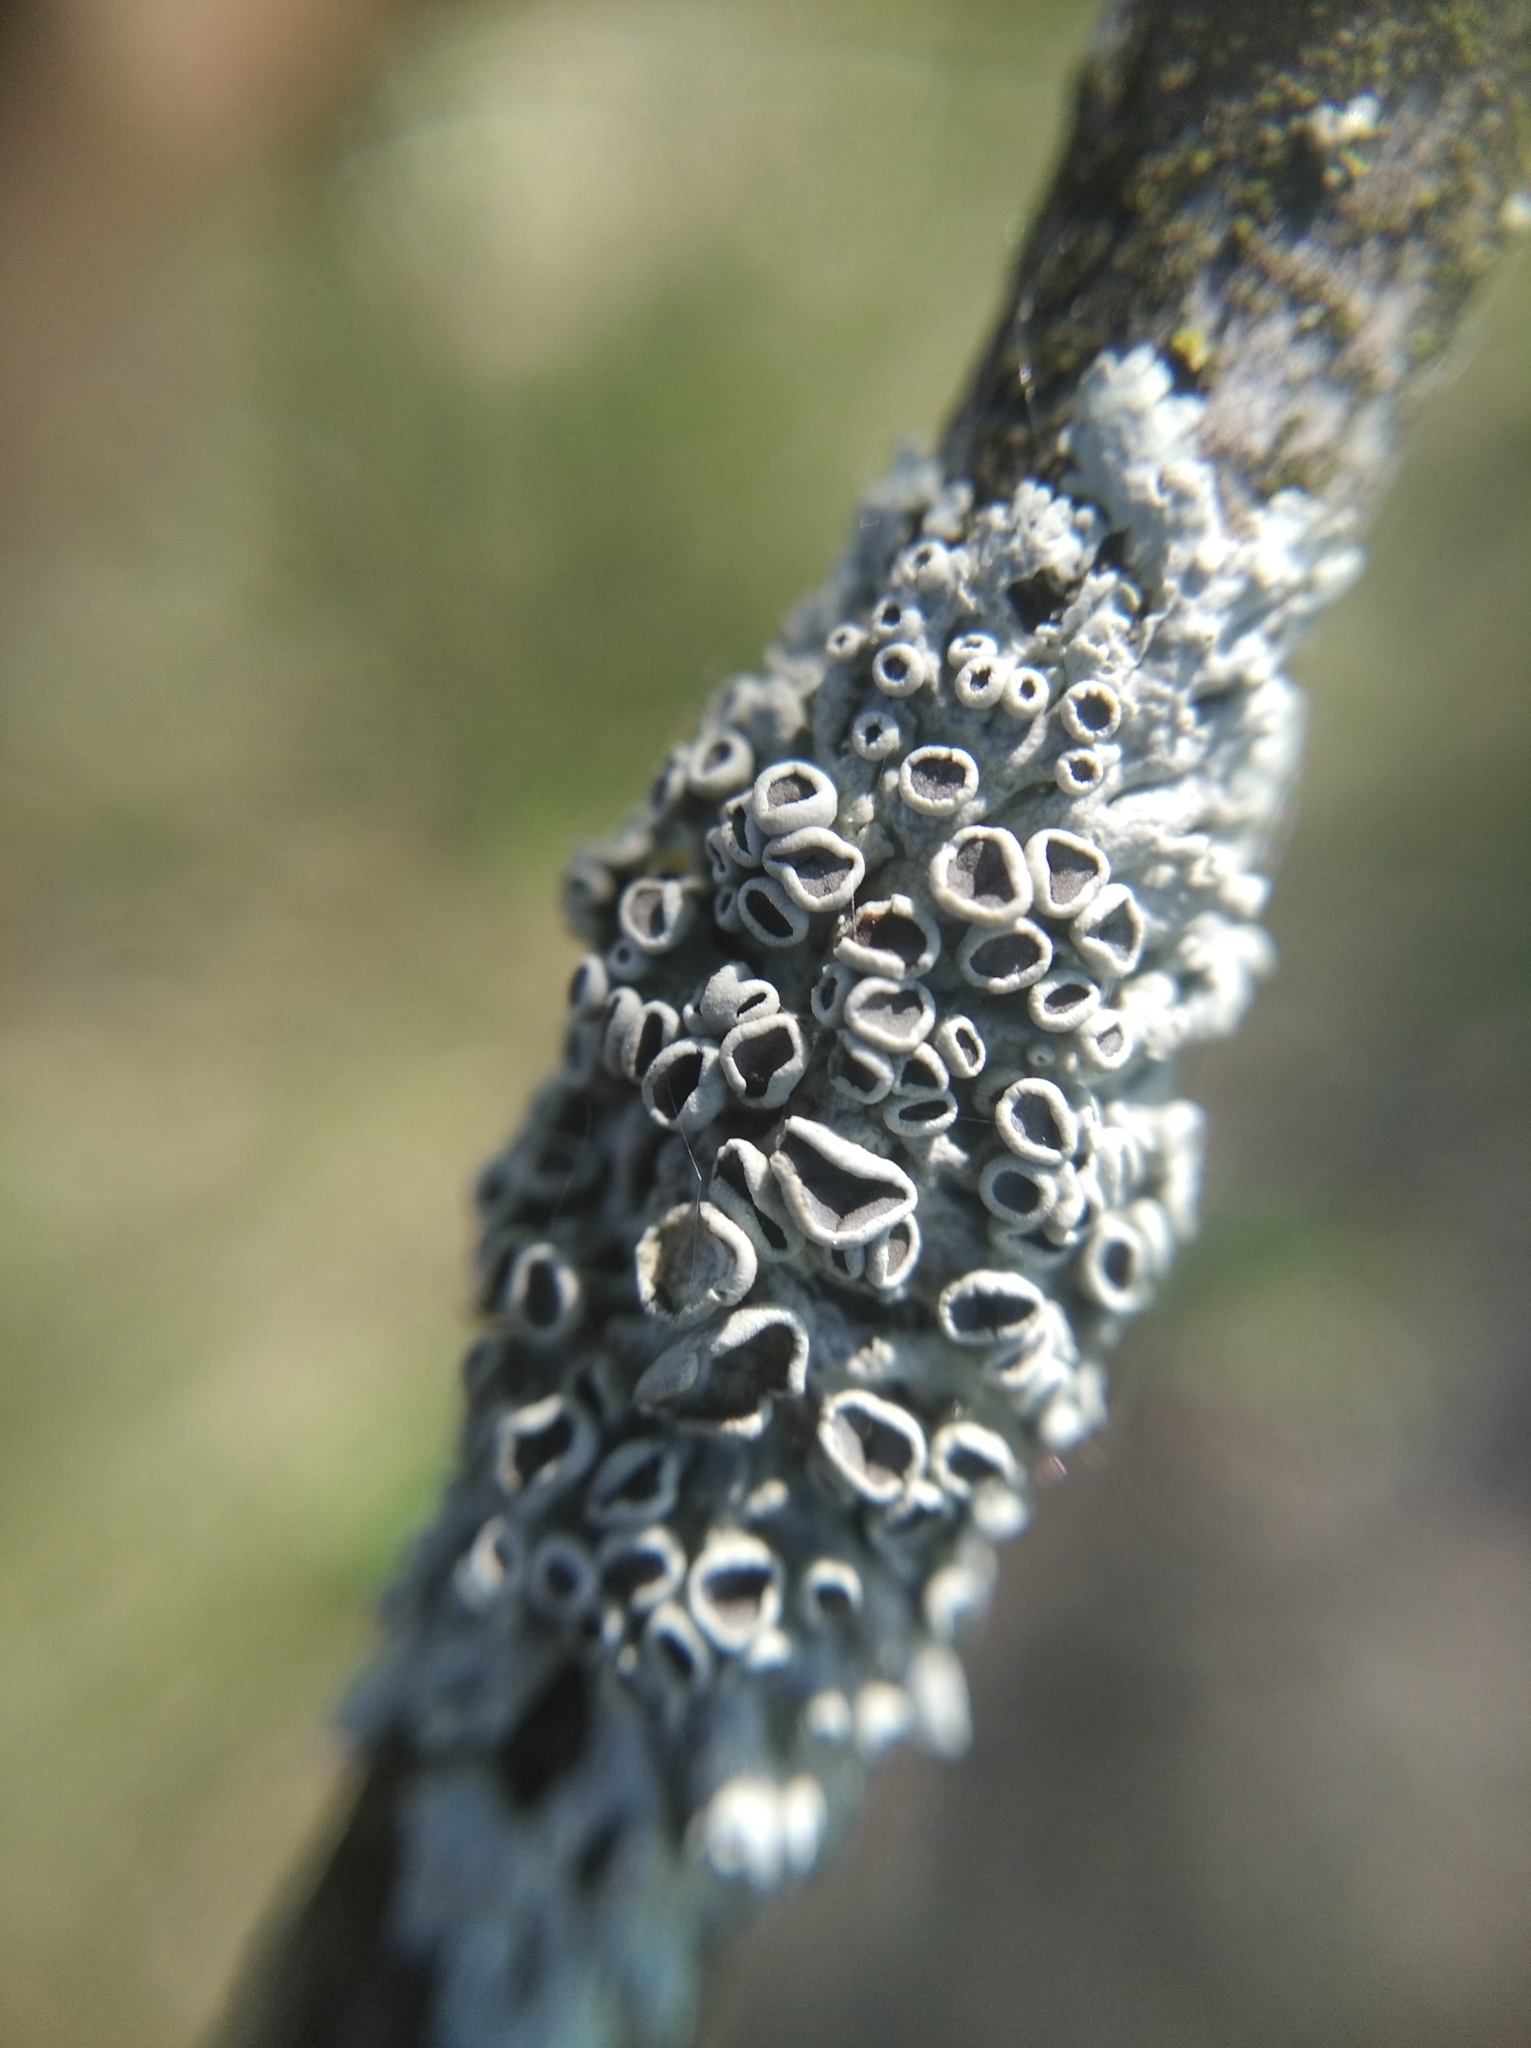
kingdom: Fungi
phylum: Ascomycota
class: Lecanoromycetes
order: Caliciales
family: Physciaceae
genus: Physcia
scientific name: Physcia stellaris
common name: Star rosette lichen
